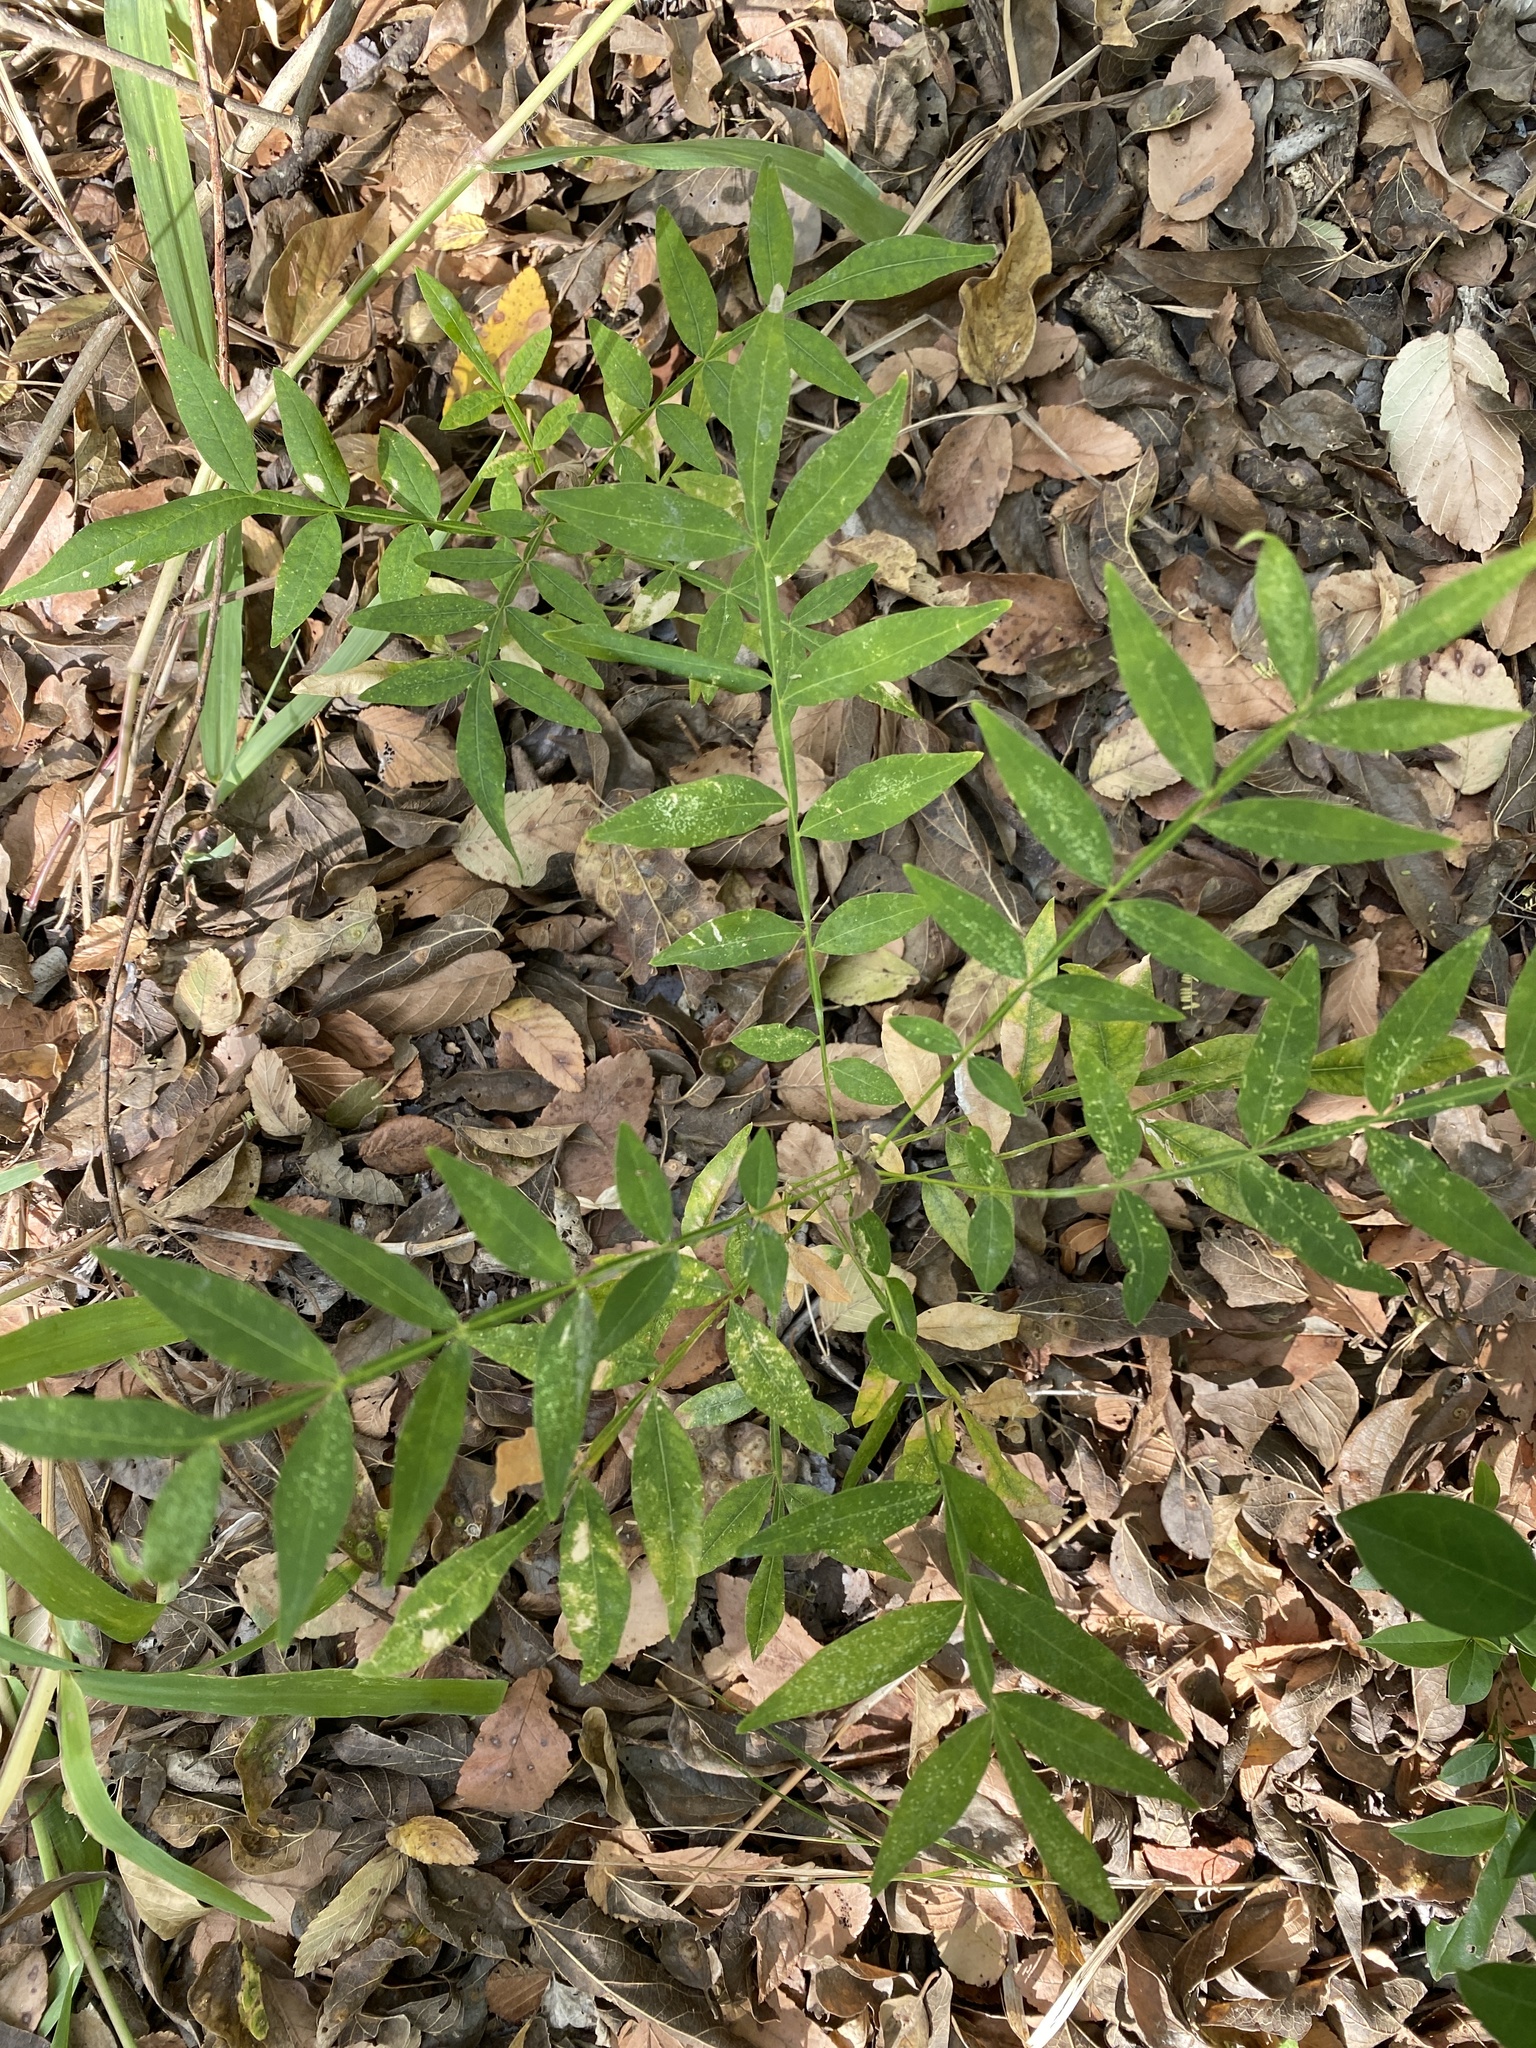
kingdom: Plantae
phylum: Tracheophyta
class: Magnoliopsida
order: Sapindales
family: Anacardiaceae
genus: Rhus
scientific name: Rhus lanceolata
